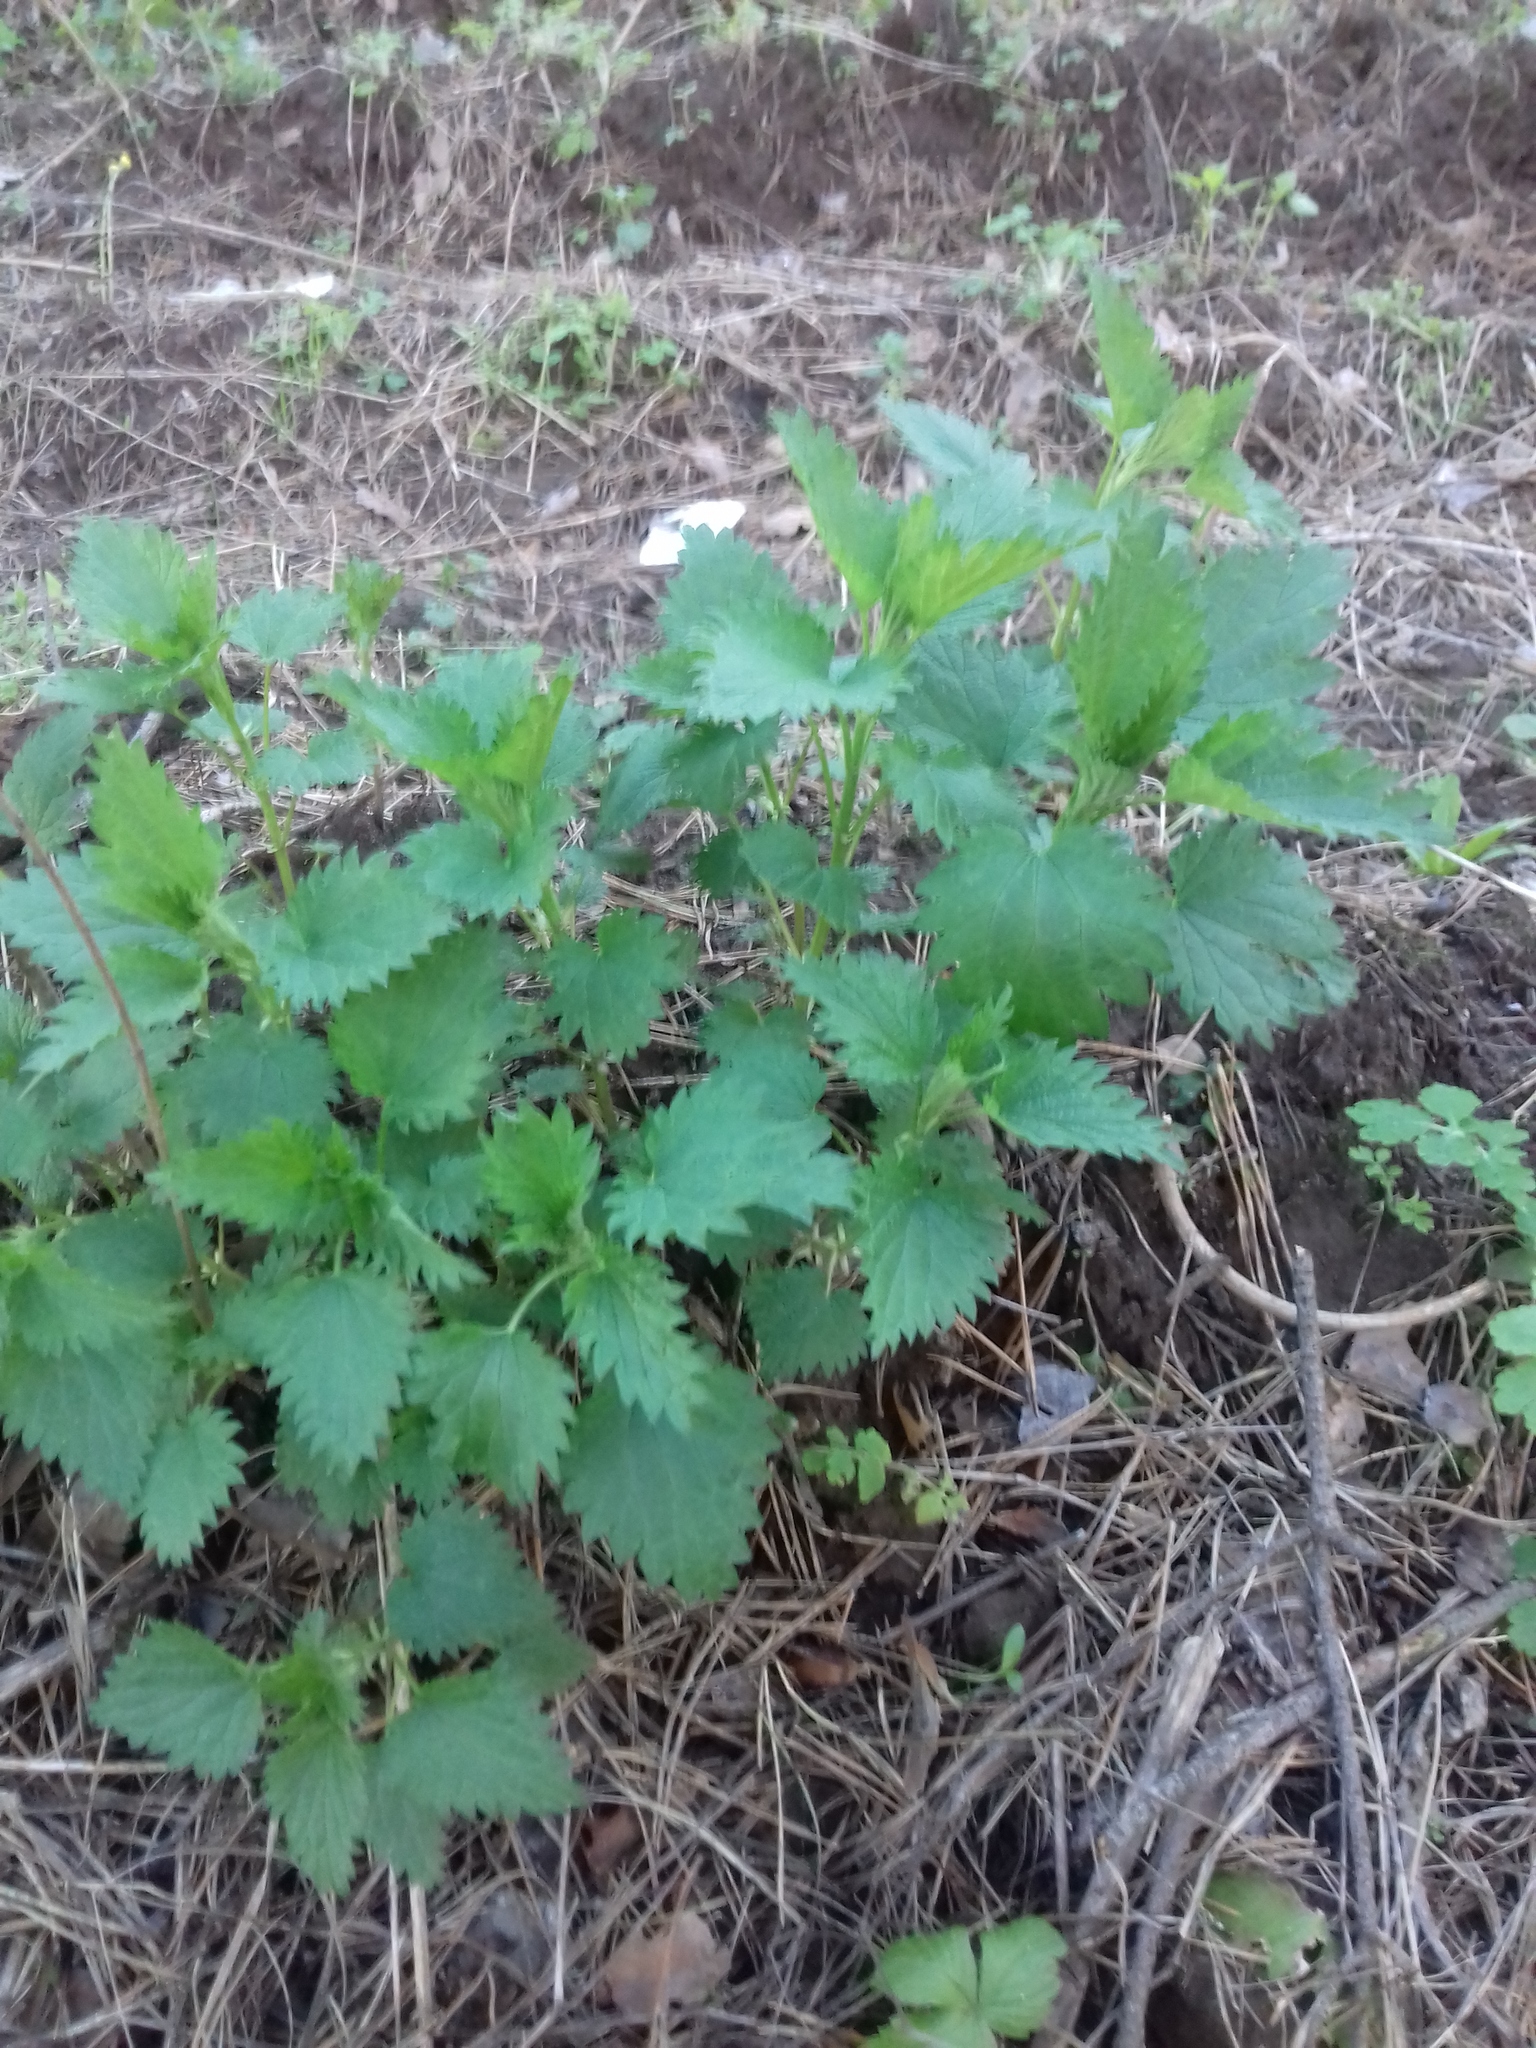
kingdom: Plantae
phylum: Tracheophyta
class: Magnoliopsida
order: Rosales
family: Urticaceae
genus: Urtica
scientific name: Urtica dioica
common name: Common nettle
